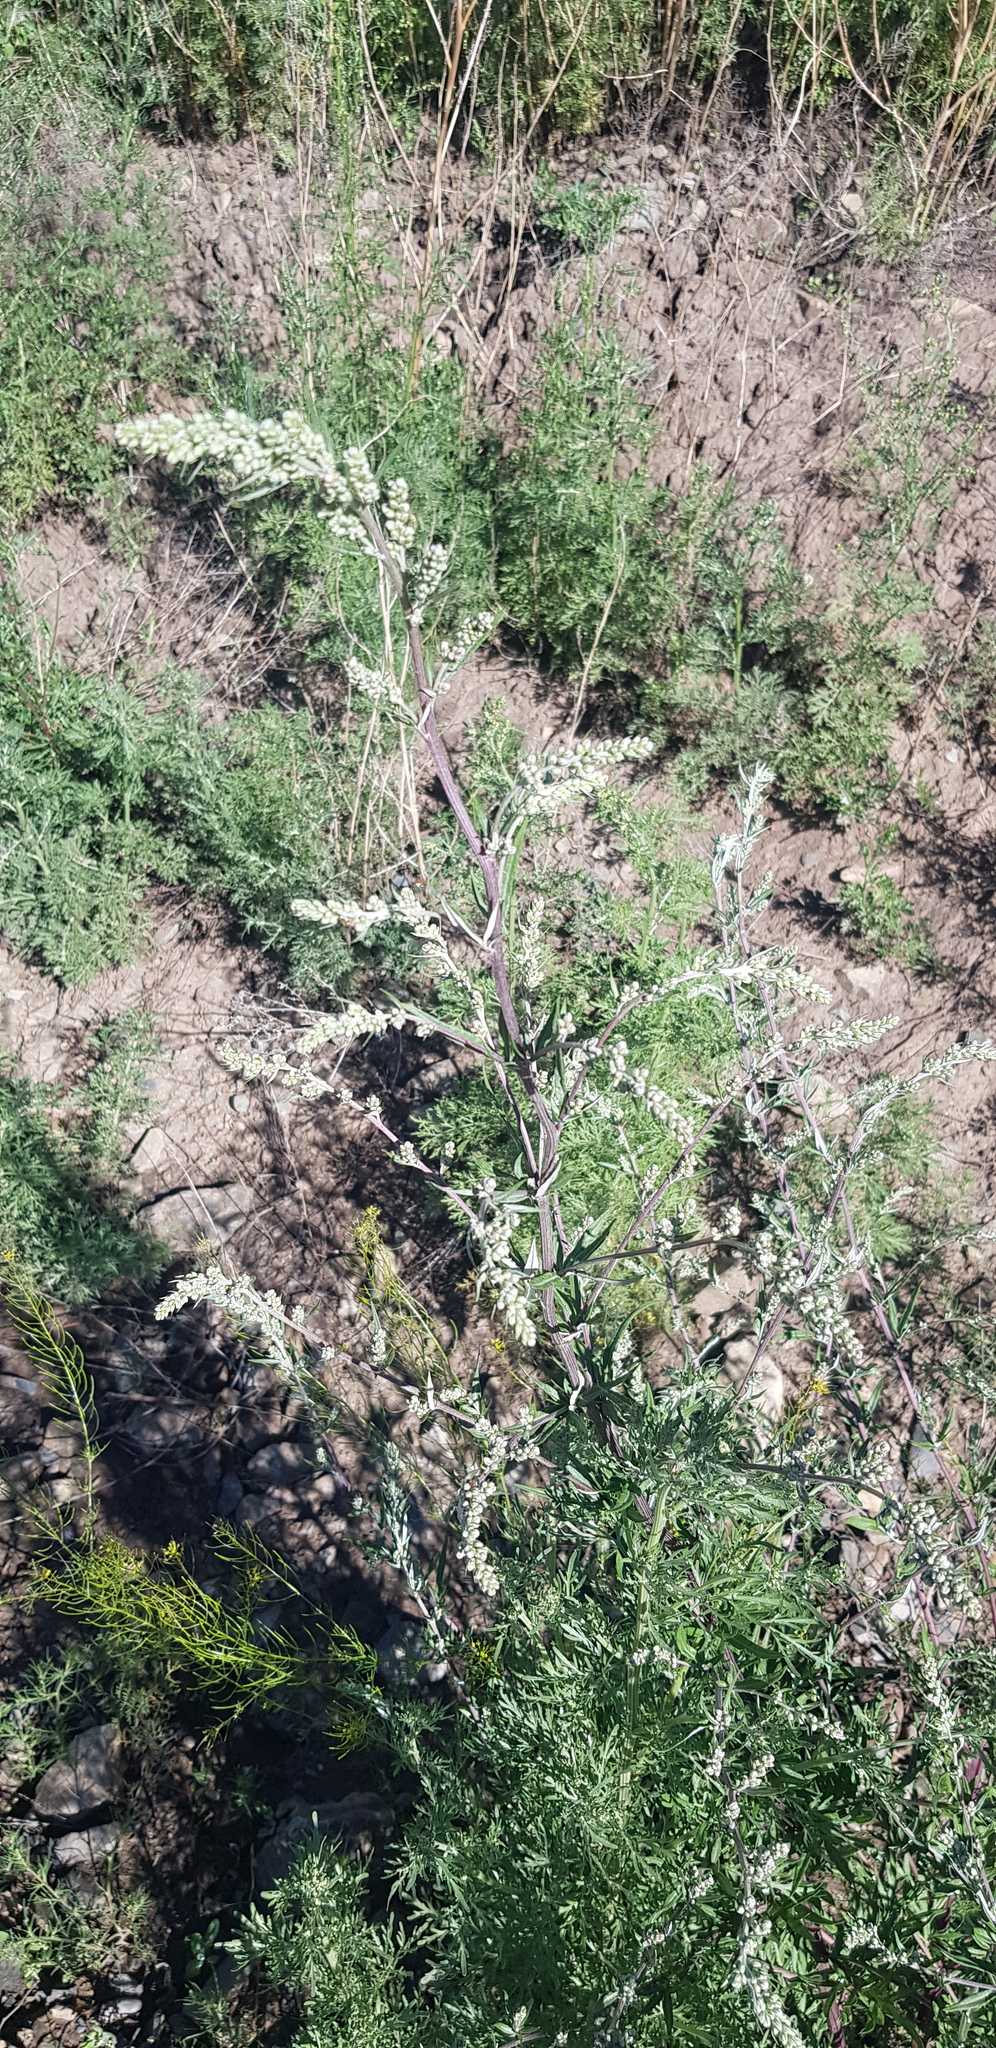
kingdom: Plantae
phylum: Tracheophyta
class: Magnoliopsida
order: Asterales
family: Asteraceae
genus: Artemisia
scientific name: Artemisia mongolica
